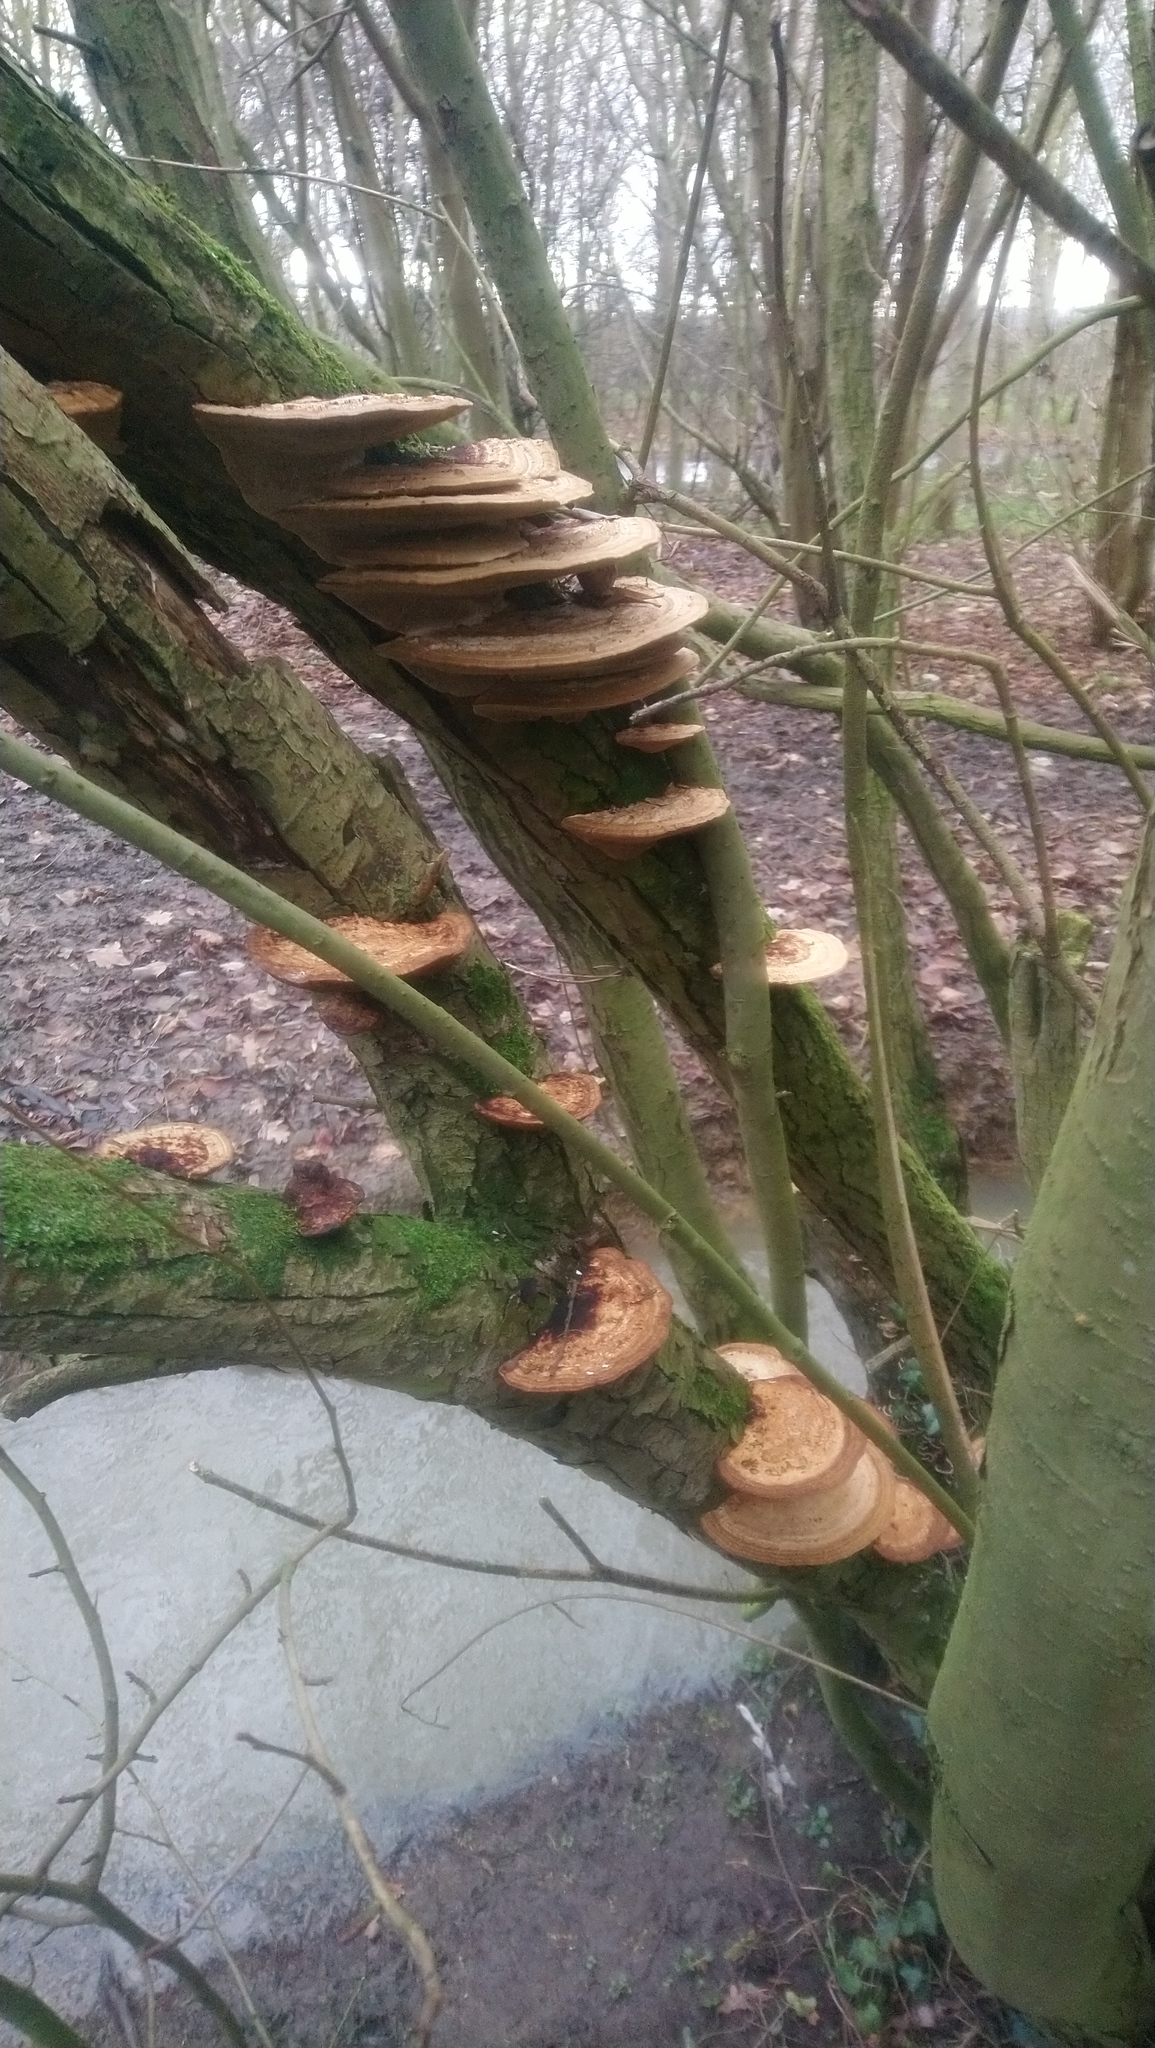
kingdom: Fungi
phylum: Basidiomycota
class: Agaricomycetes
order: Polyporales
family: Polyporaceae
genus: Daedaleopsis
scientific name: Daedaleopsis confragosa
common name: Blushing bracket
